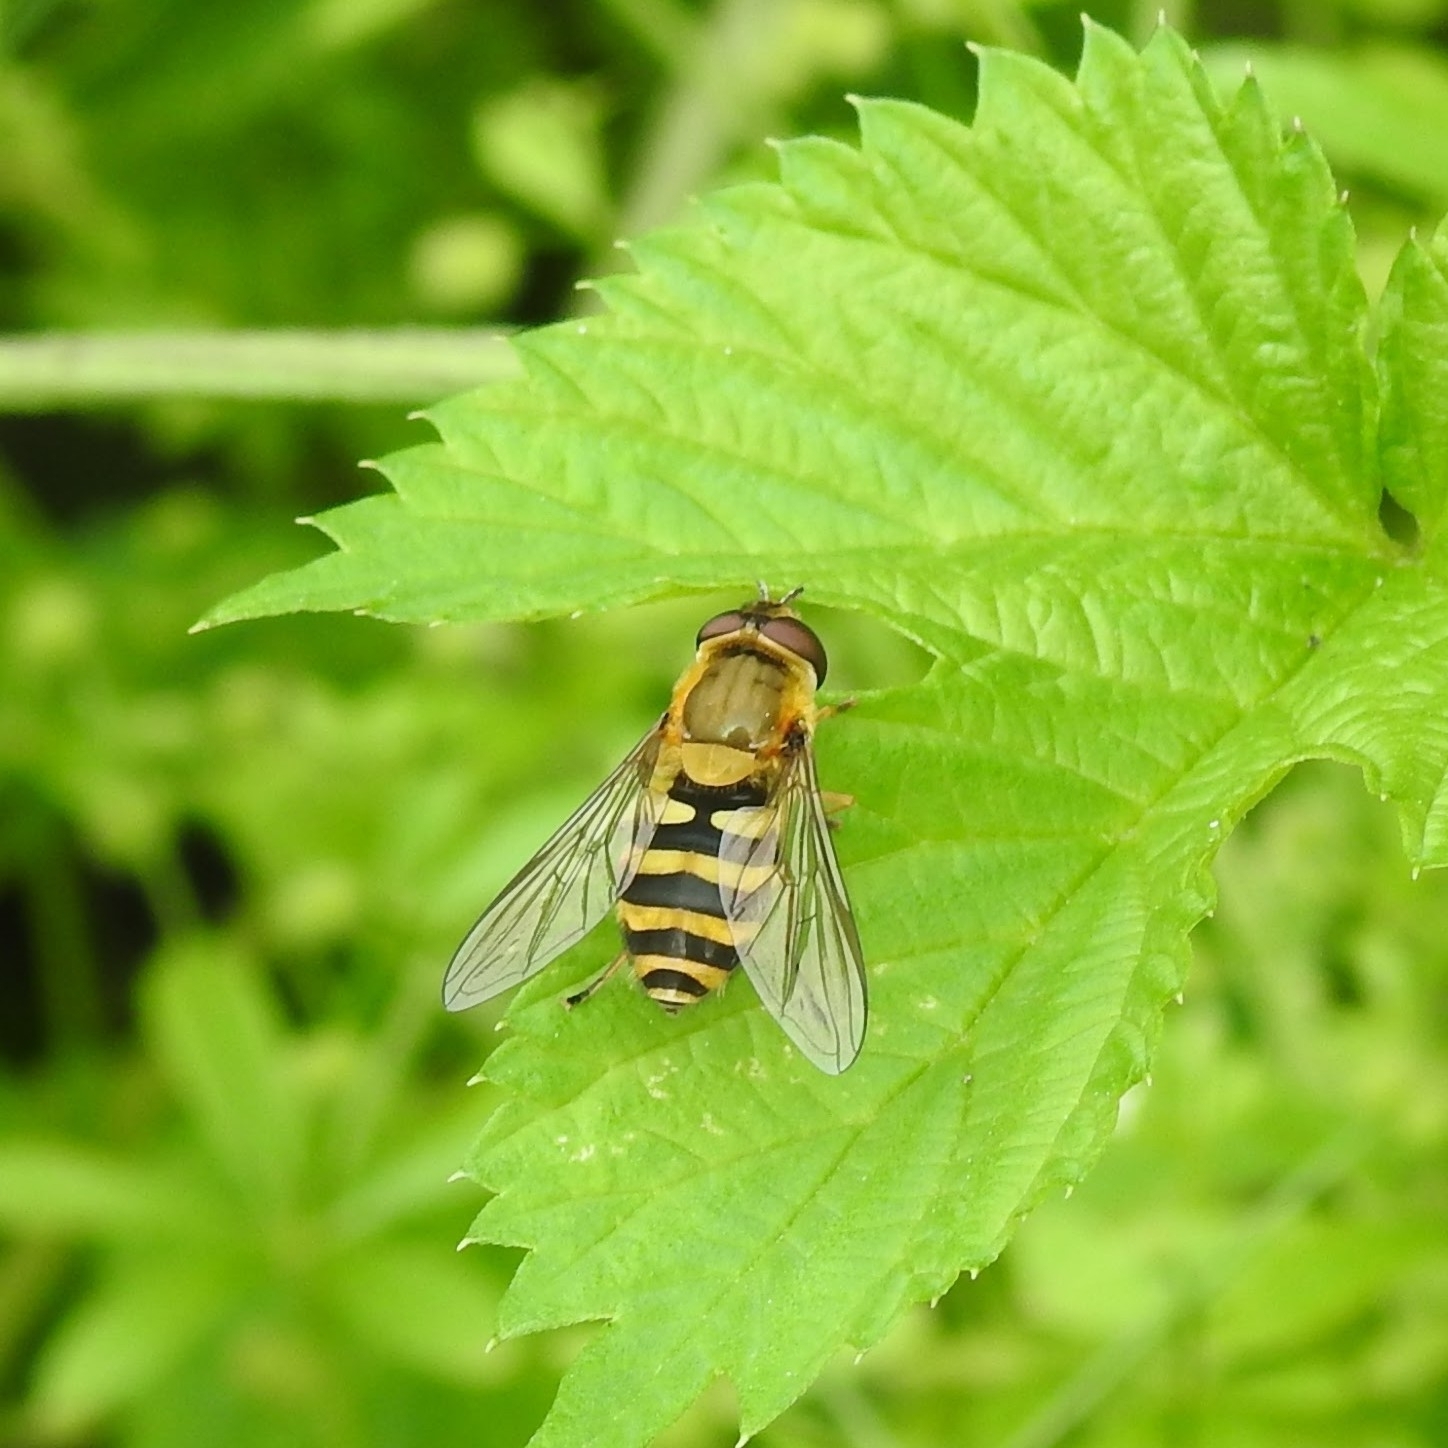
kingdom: Animalia
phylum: Arthropoda
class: Insecta
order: Diptera
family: Syrphidae
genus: Syrphus
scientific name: Syrphus
